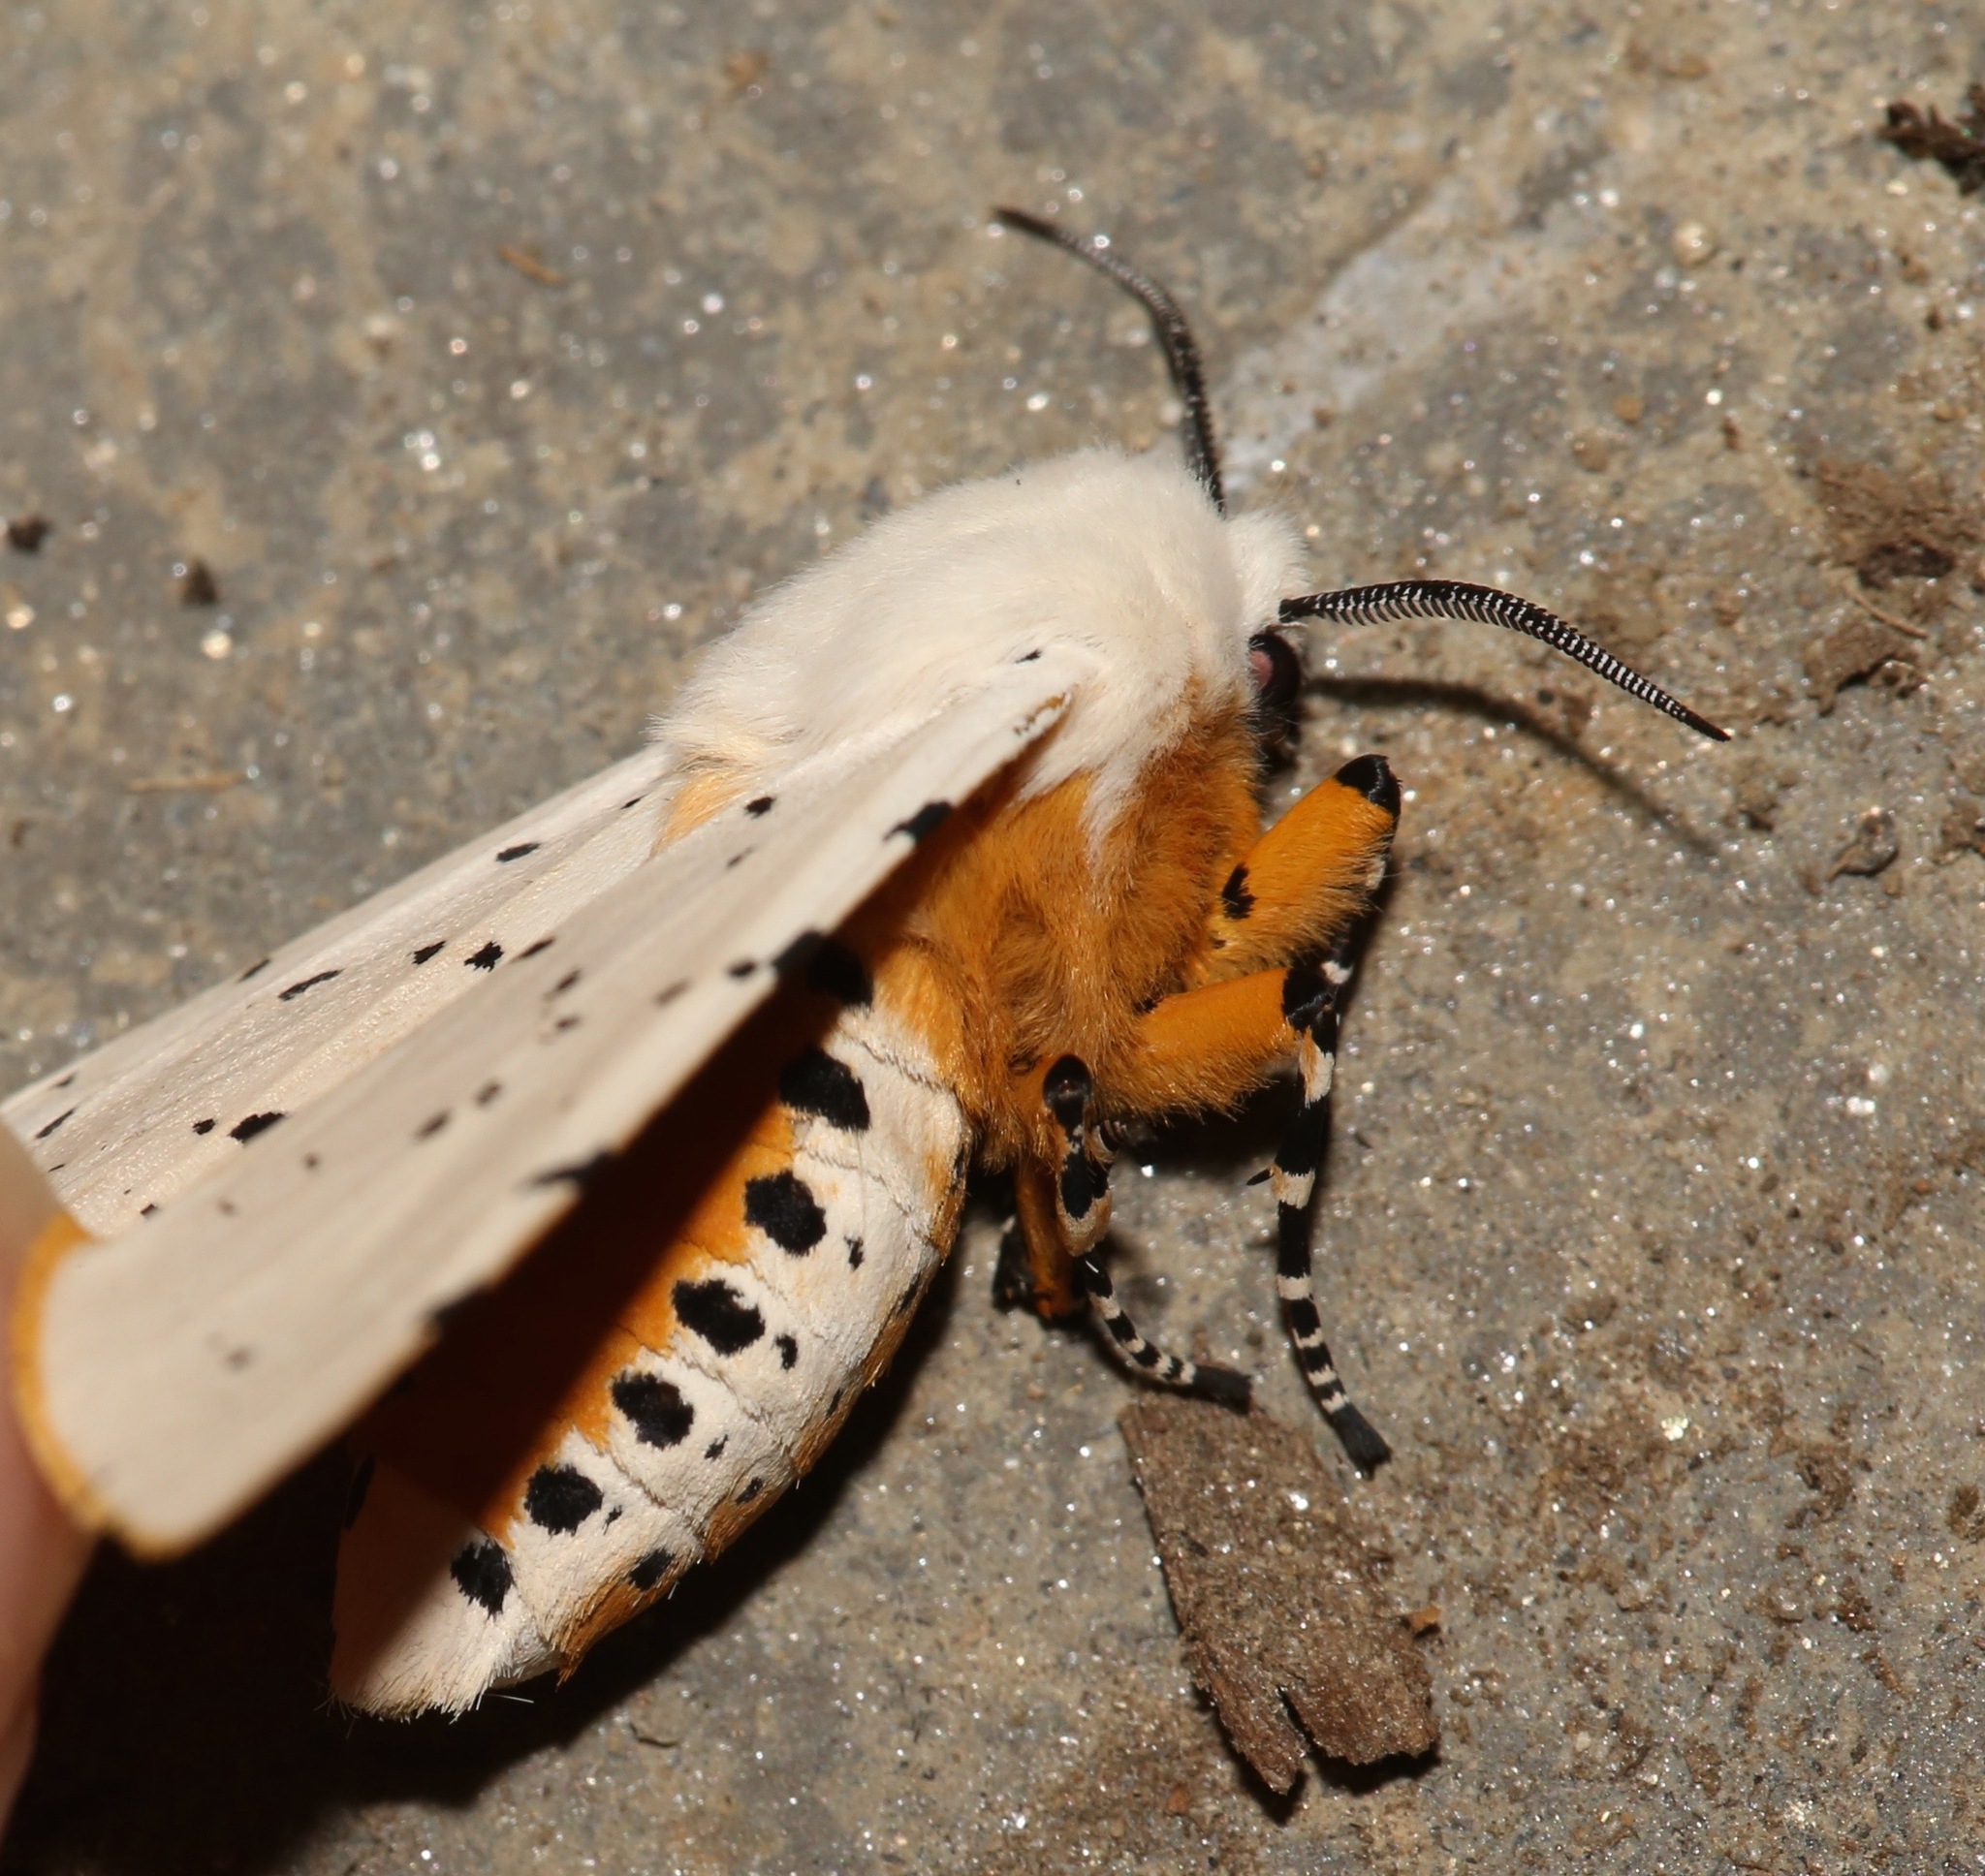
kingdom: Animalia
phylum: Arthropoda
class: Insecta
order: Lepidoptera
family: Erebidae
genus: Estigmene
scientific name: Estigmene acrea
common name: Salt marsh moth
